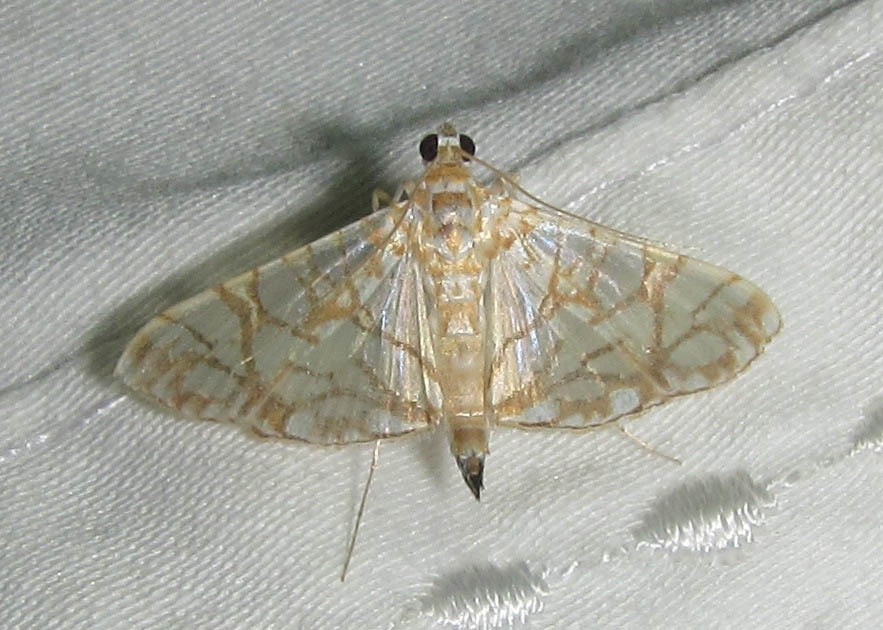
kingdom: Animalia
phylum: Arthropoda
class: Insecta
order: Lepidoptera
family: Crambidae
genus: Synclera
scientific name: Synclera traducalis
